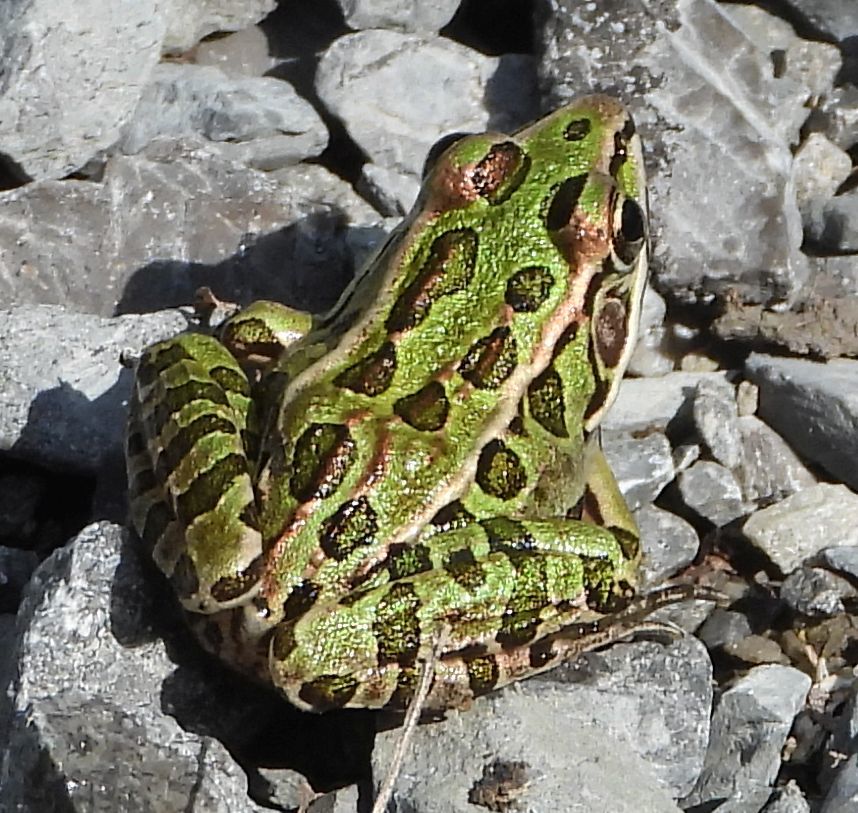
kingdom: Animalia
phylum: Chordata
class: Amphibia
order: Anura
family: Ranidae
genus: Lithobates
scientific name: Lithobates pipiens
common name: Northern leopard frog
